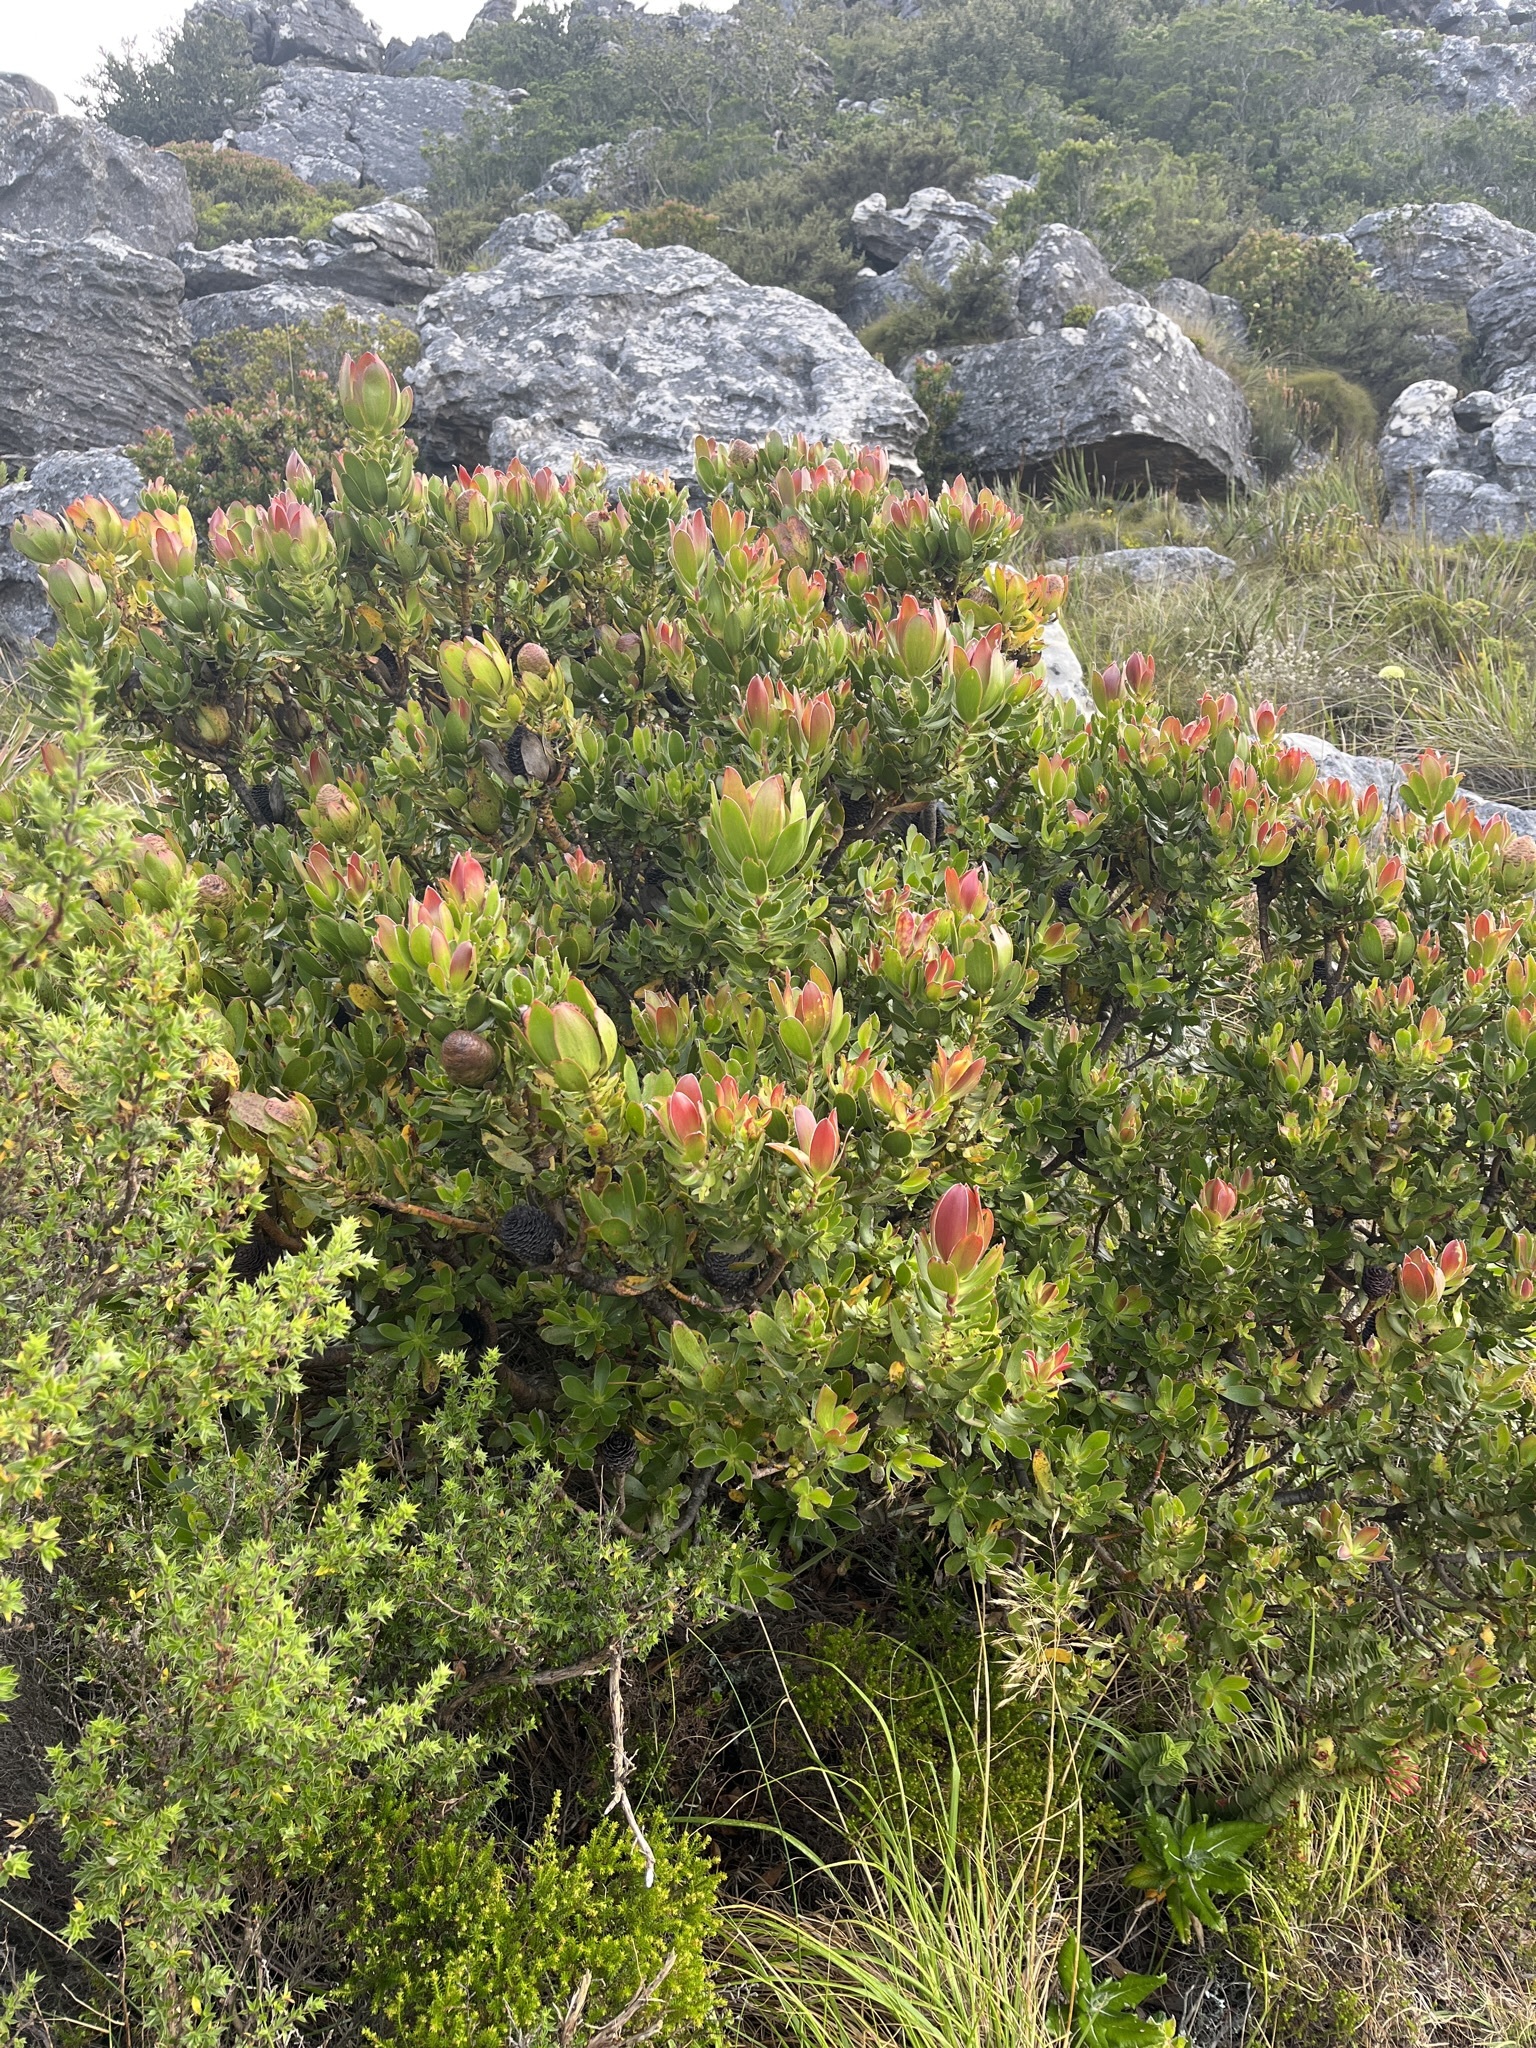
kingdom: Plantae
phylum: Tracheophyta
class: Magnoliopsida
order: Proteales
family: Proteaceae
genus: Leucadendron
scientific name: Leucadendron strobilinum
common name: Mountain rose
